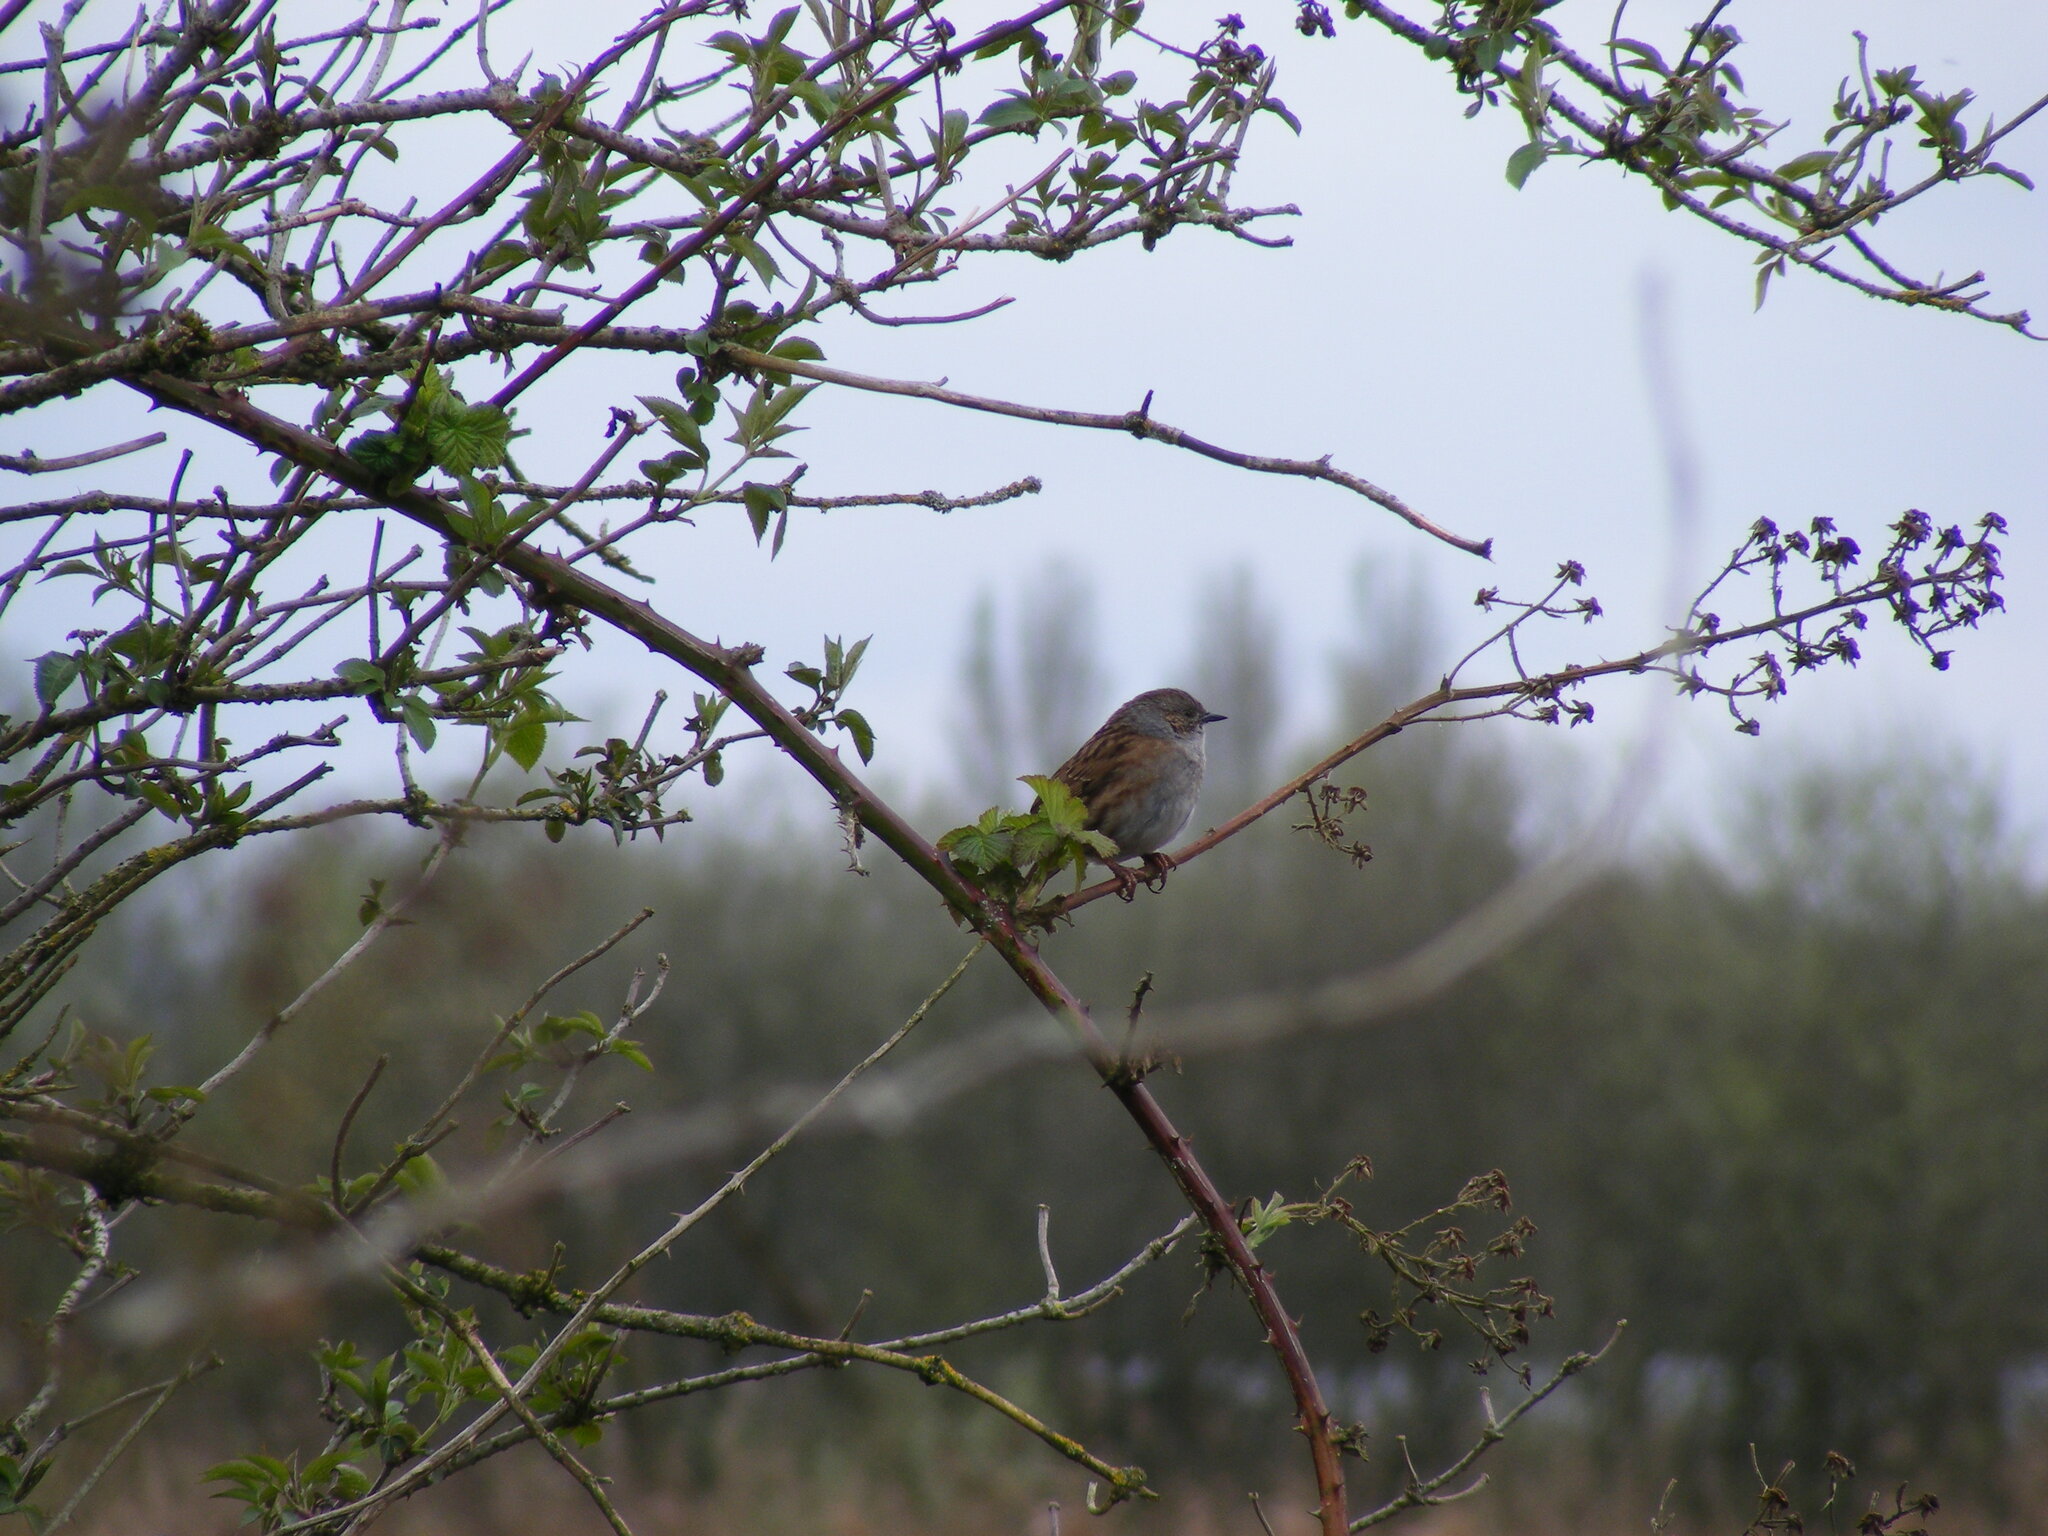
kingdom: Animalia
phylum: Chordata
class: Aves
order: Passeriformes
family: Prunellidae
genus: Prunella
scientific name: Prunella modularis
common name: Dunnock
